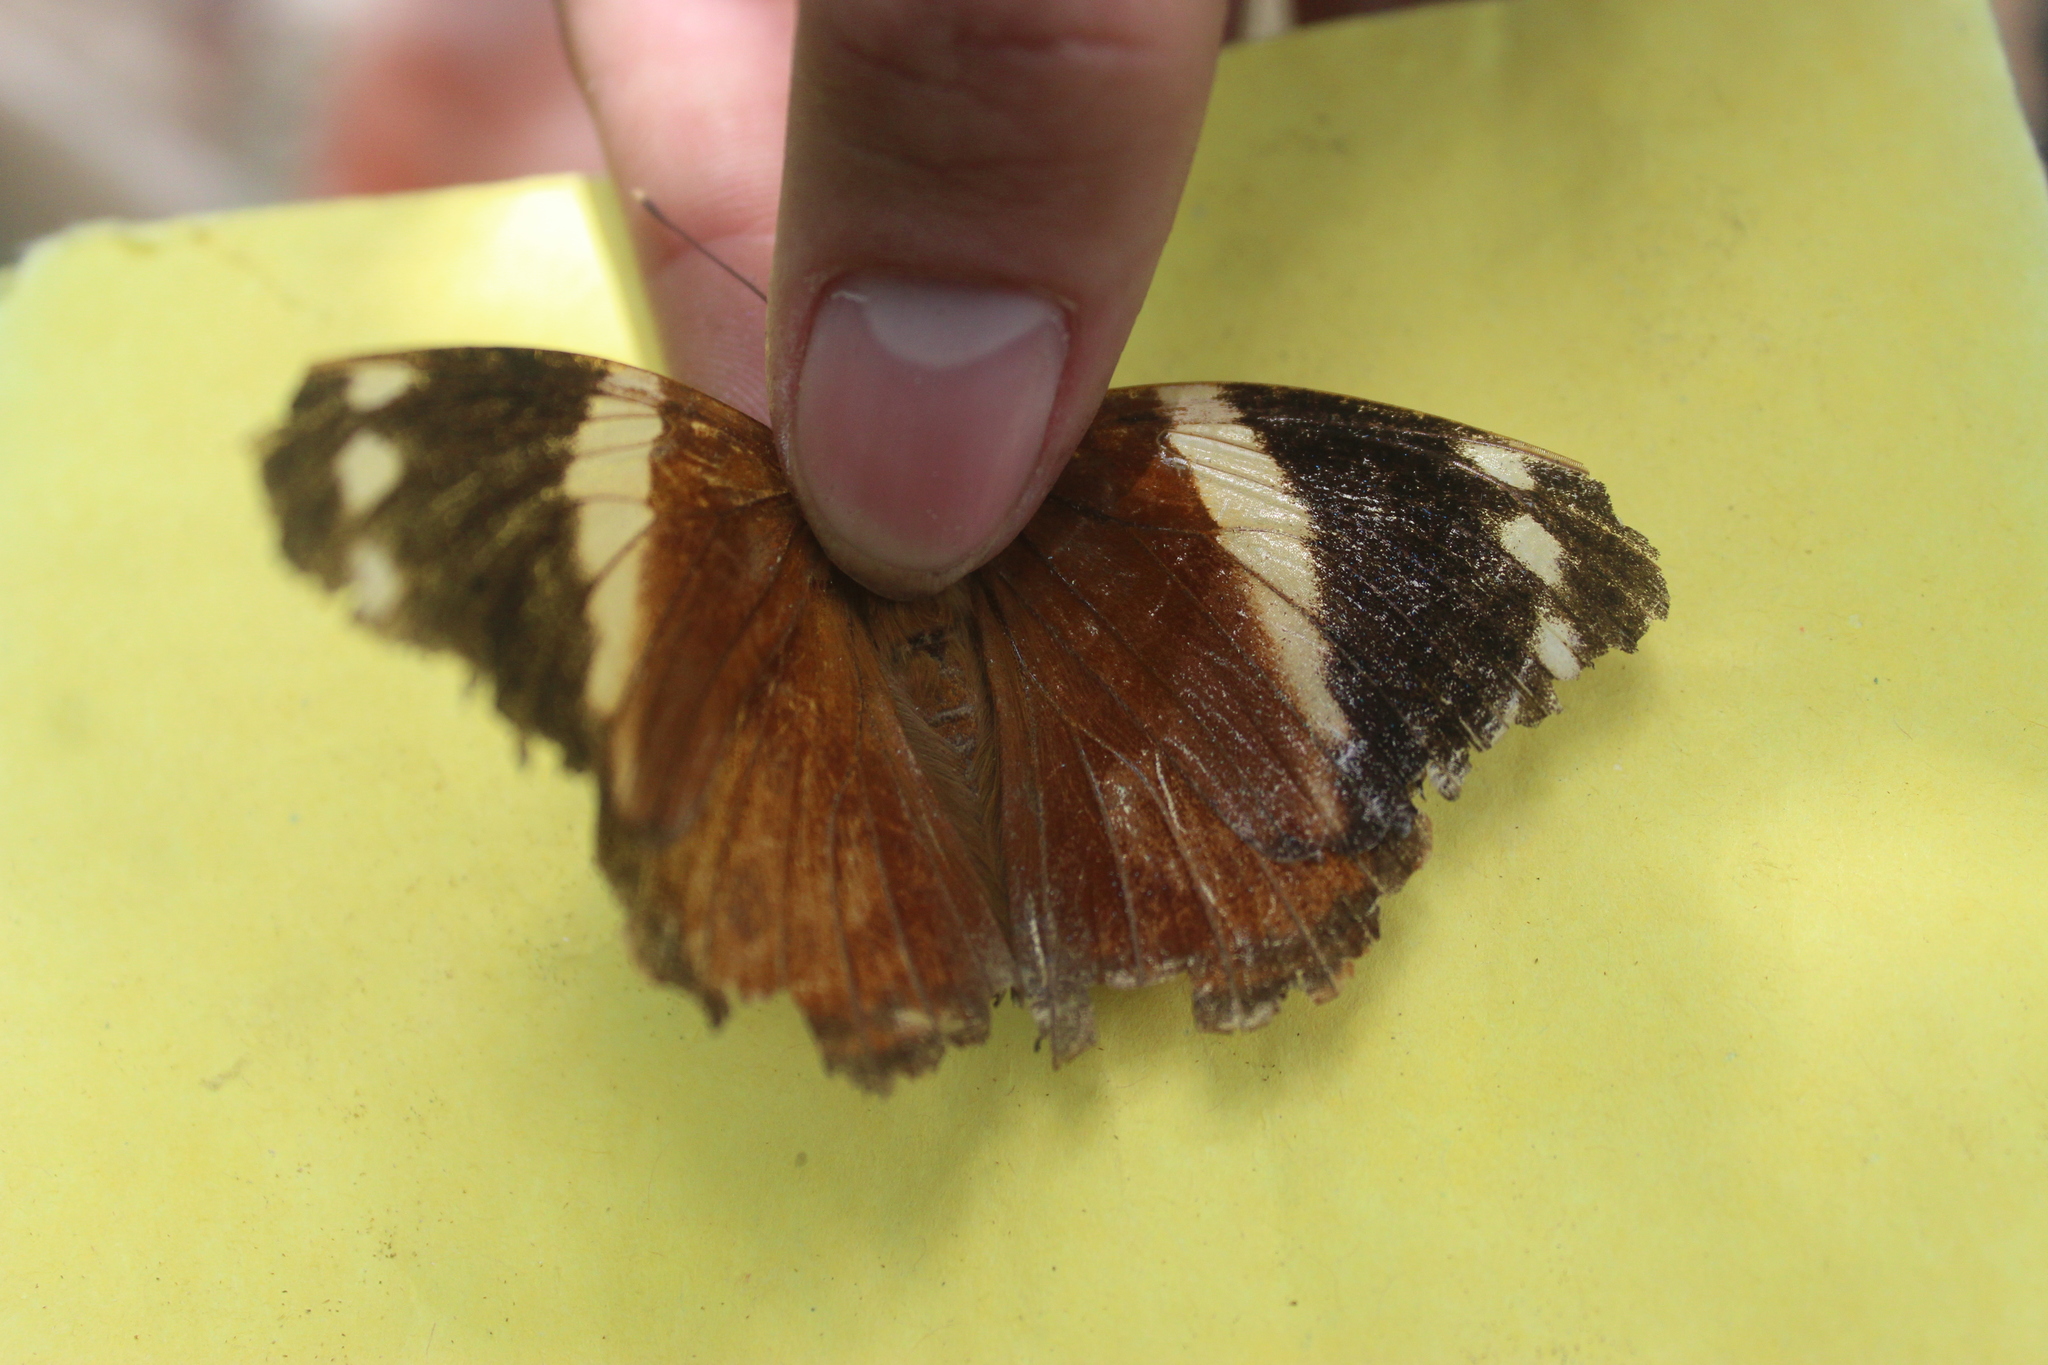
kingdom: Animalia
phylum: Arthropoda
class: Insecta
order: Lepidoptera
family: Nymphalidae
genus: Smyrna
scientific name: Smyrna blomfildia
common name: Blomfild's beauty
